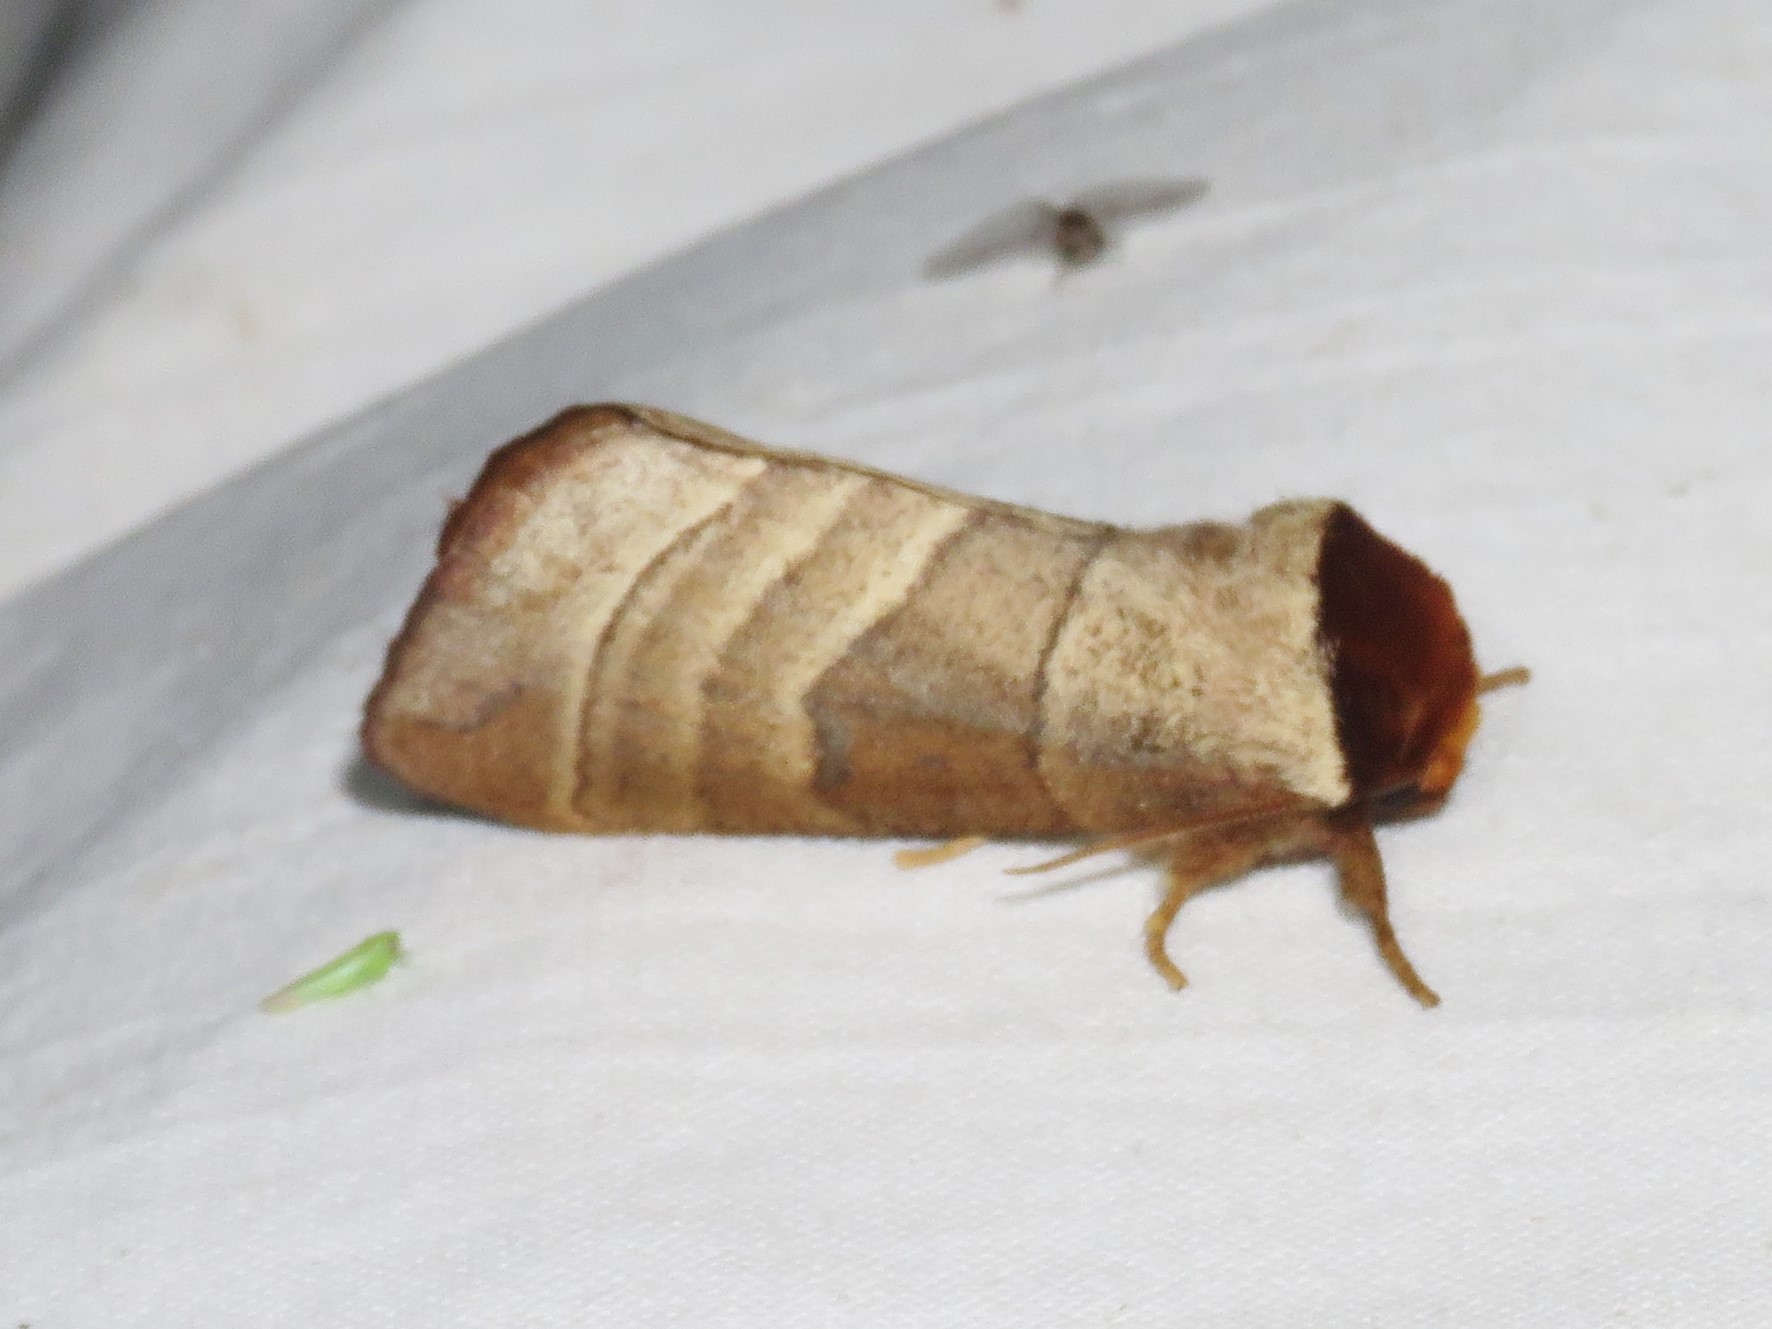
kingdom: Animalia
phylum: Arthropoda
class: Insecta
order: Lepidoptera
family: Notodontidae
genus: Datana
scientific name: Datana integerrima
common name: Walnut caterpillar
